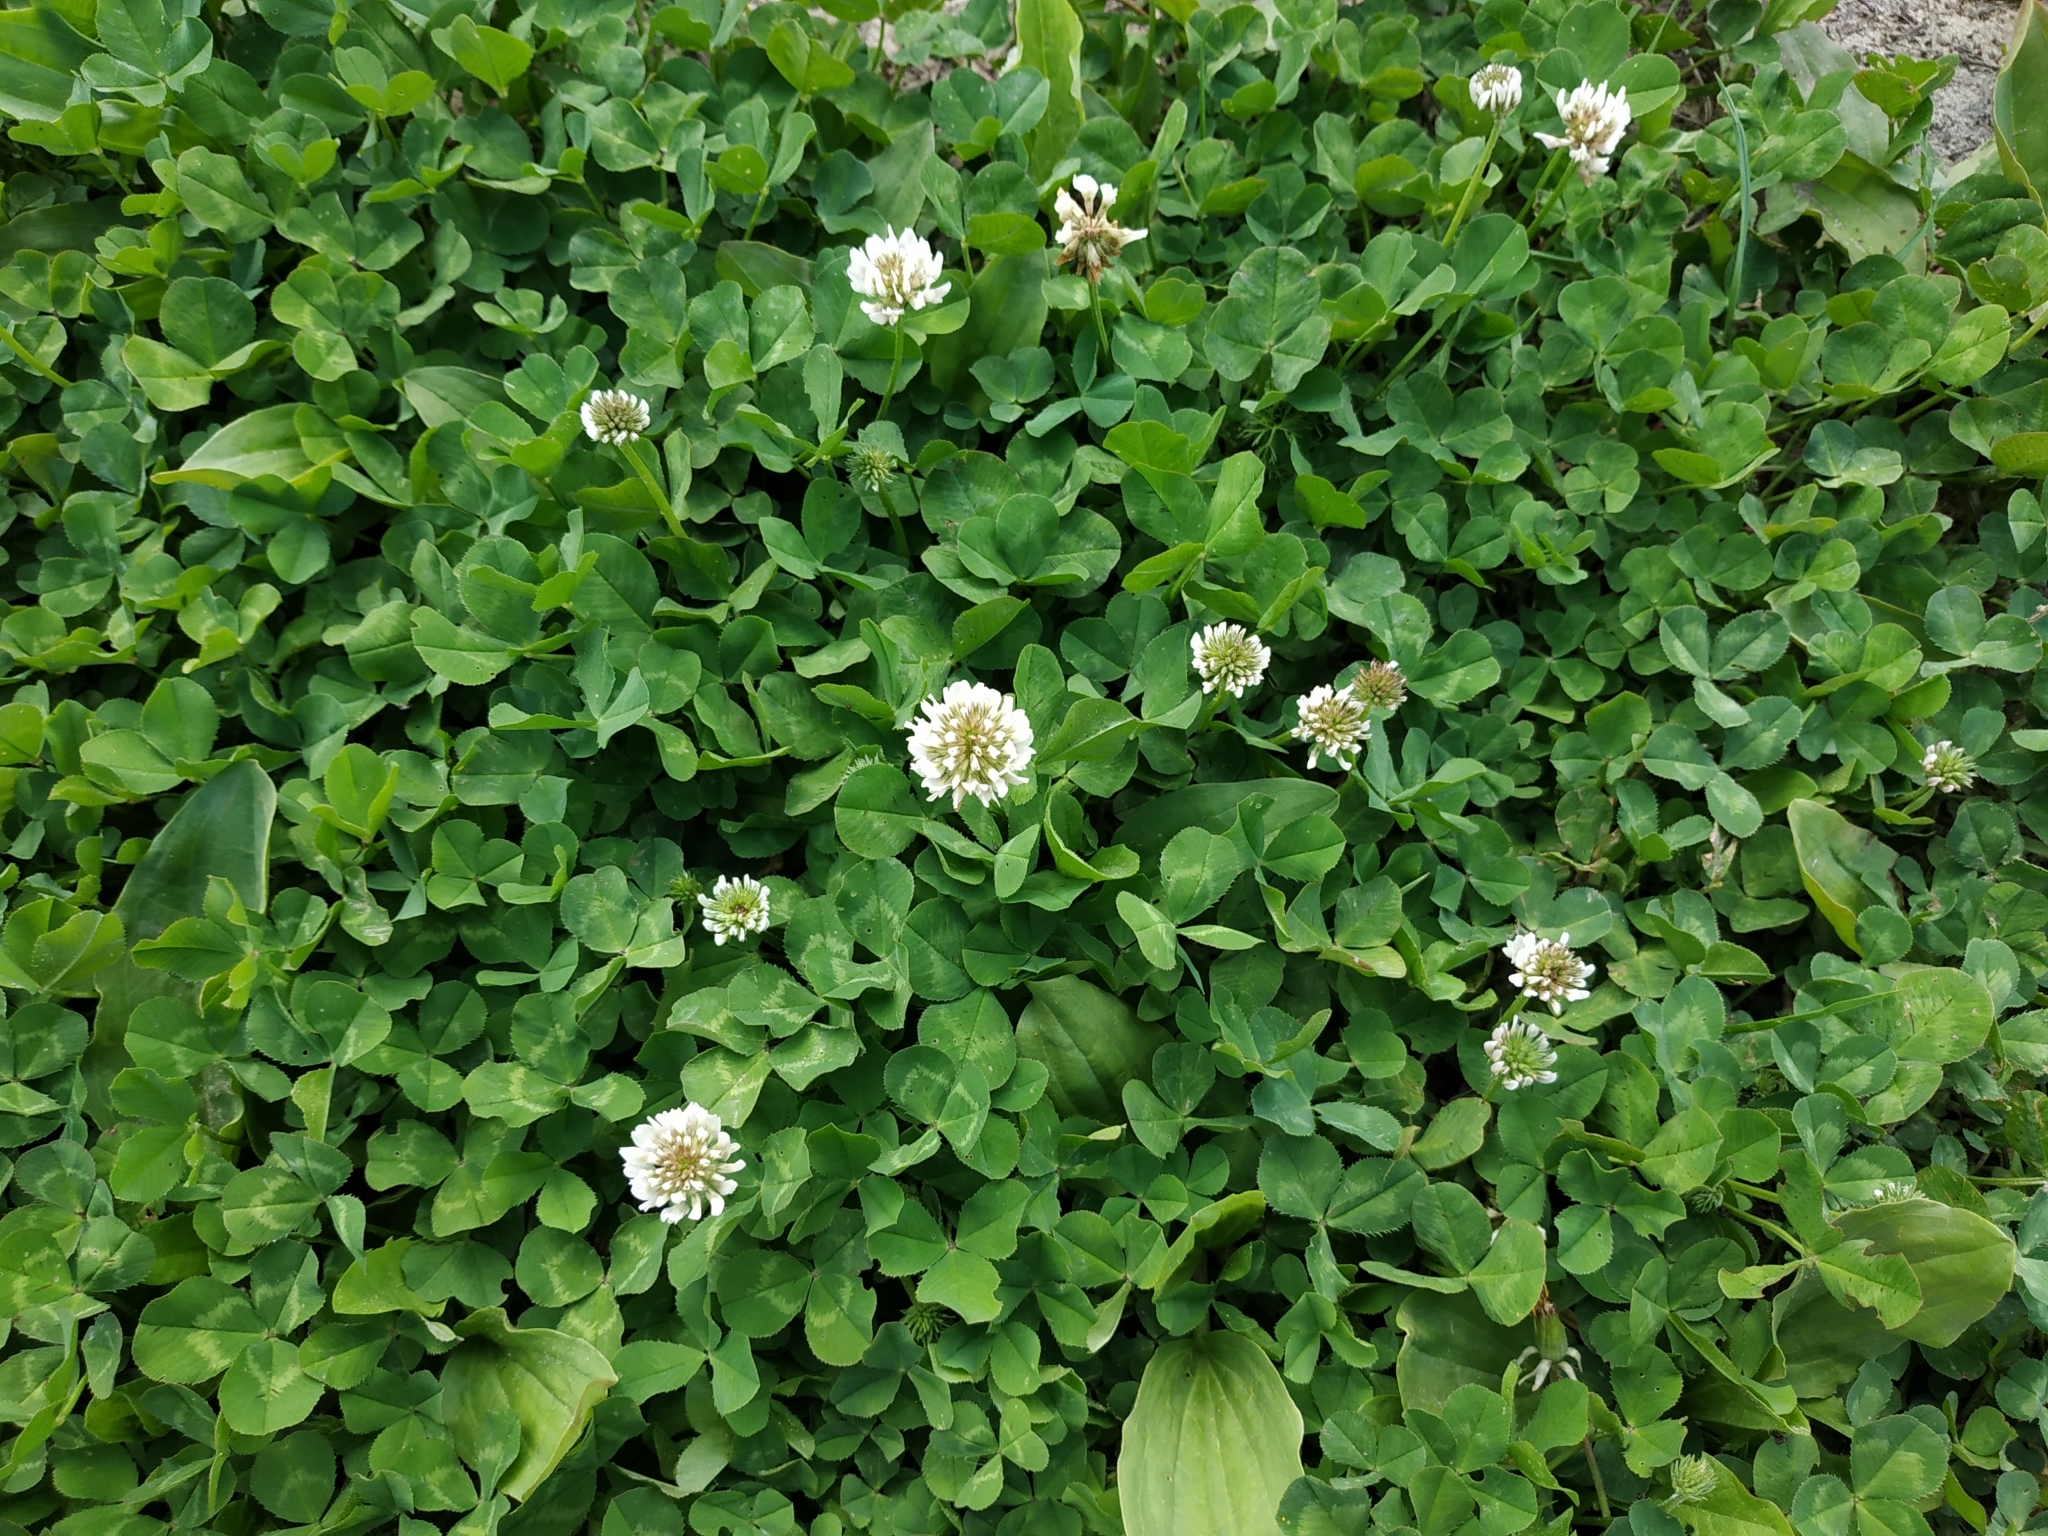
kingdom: Plantae
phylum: Tracheophyta
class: Magnoliopsida
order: Fabales
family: Fabaceae
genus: Trifolium
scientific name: Trifolium repens
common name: White clover
